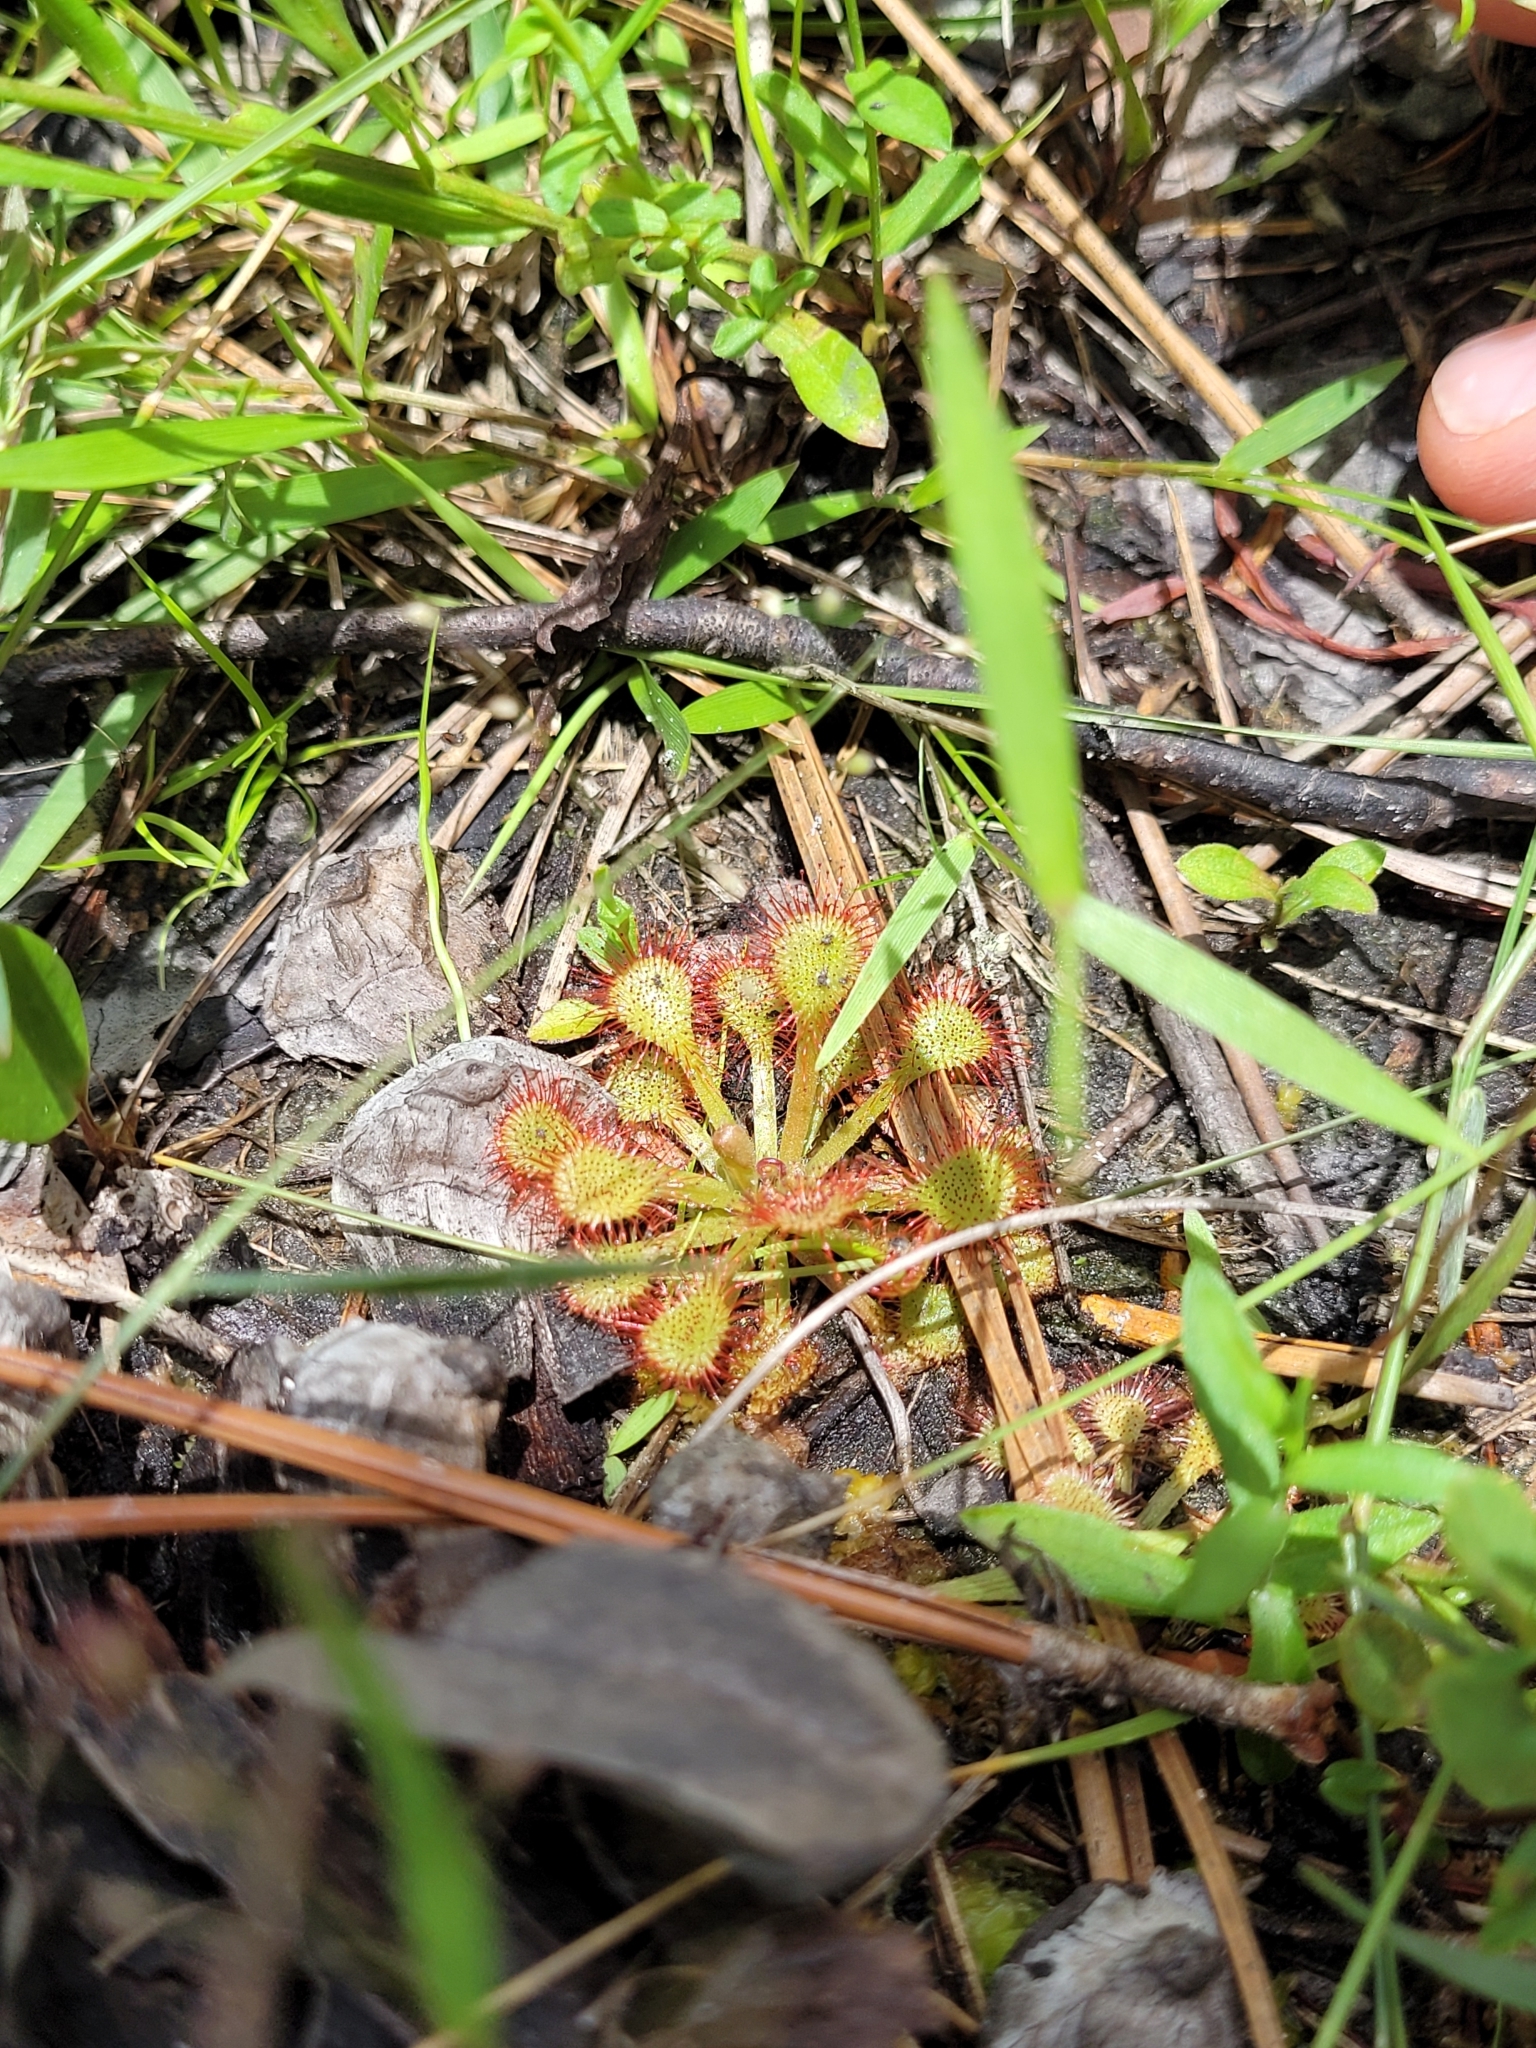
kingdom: Plantae
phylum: Tracheophyta
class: Magnoliopsida
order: Caryophyllales
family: Droseraceae
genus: Drosera
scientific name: Drosera capillaris
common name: Pink sundew
